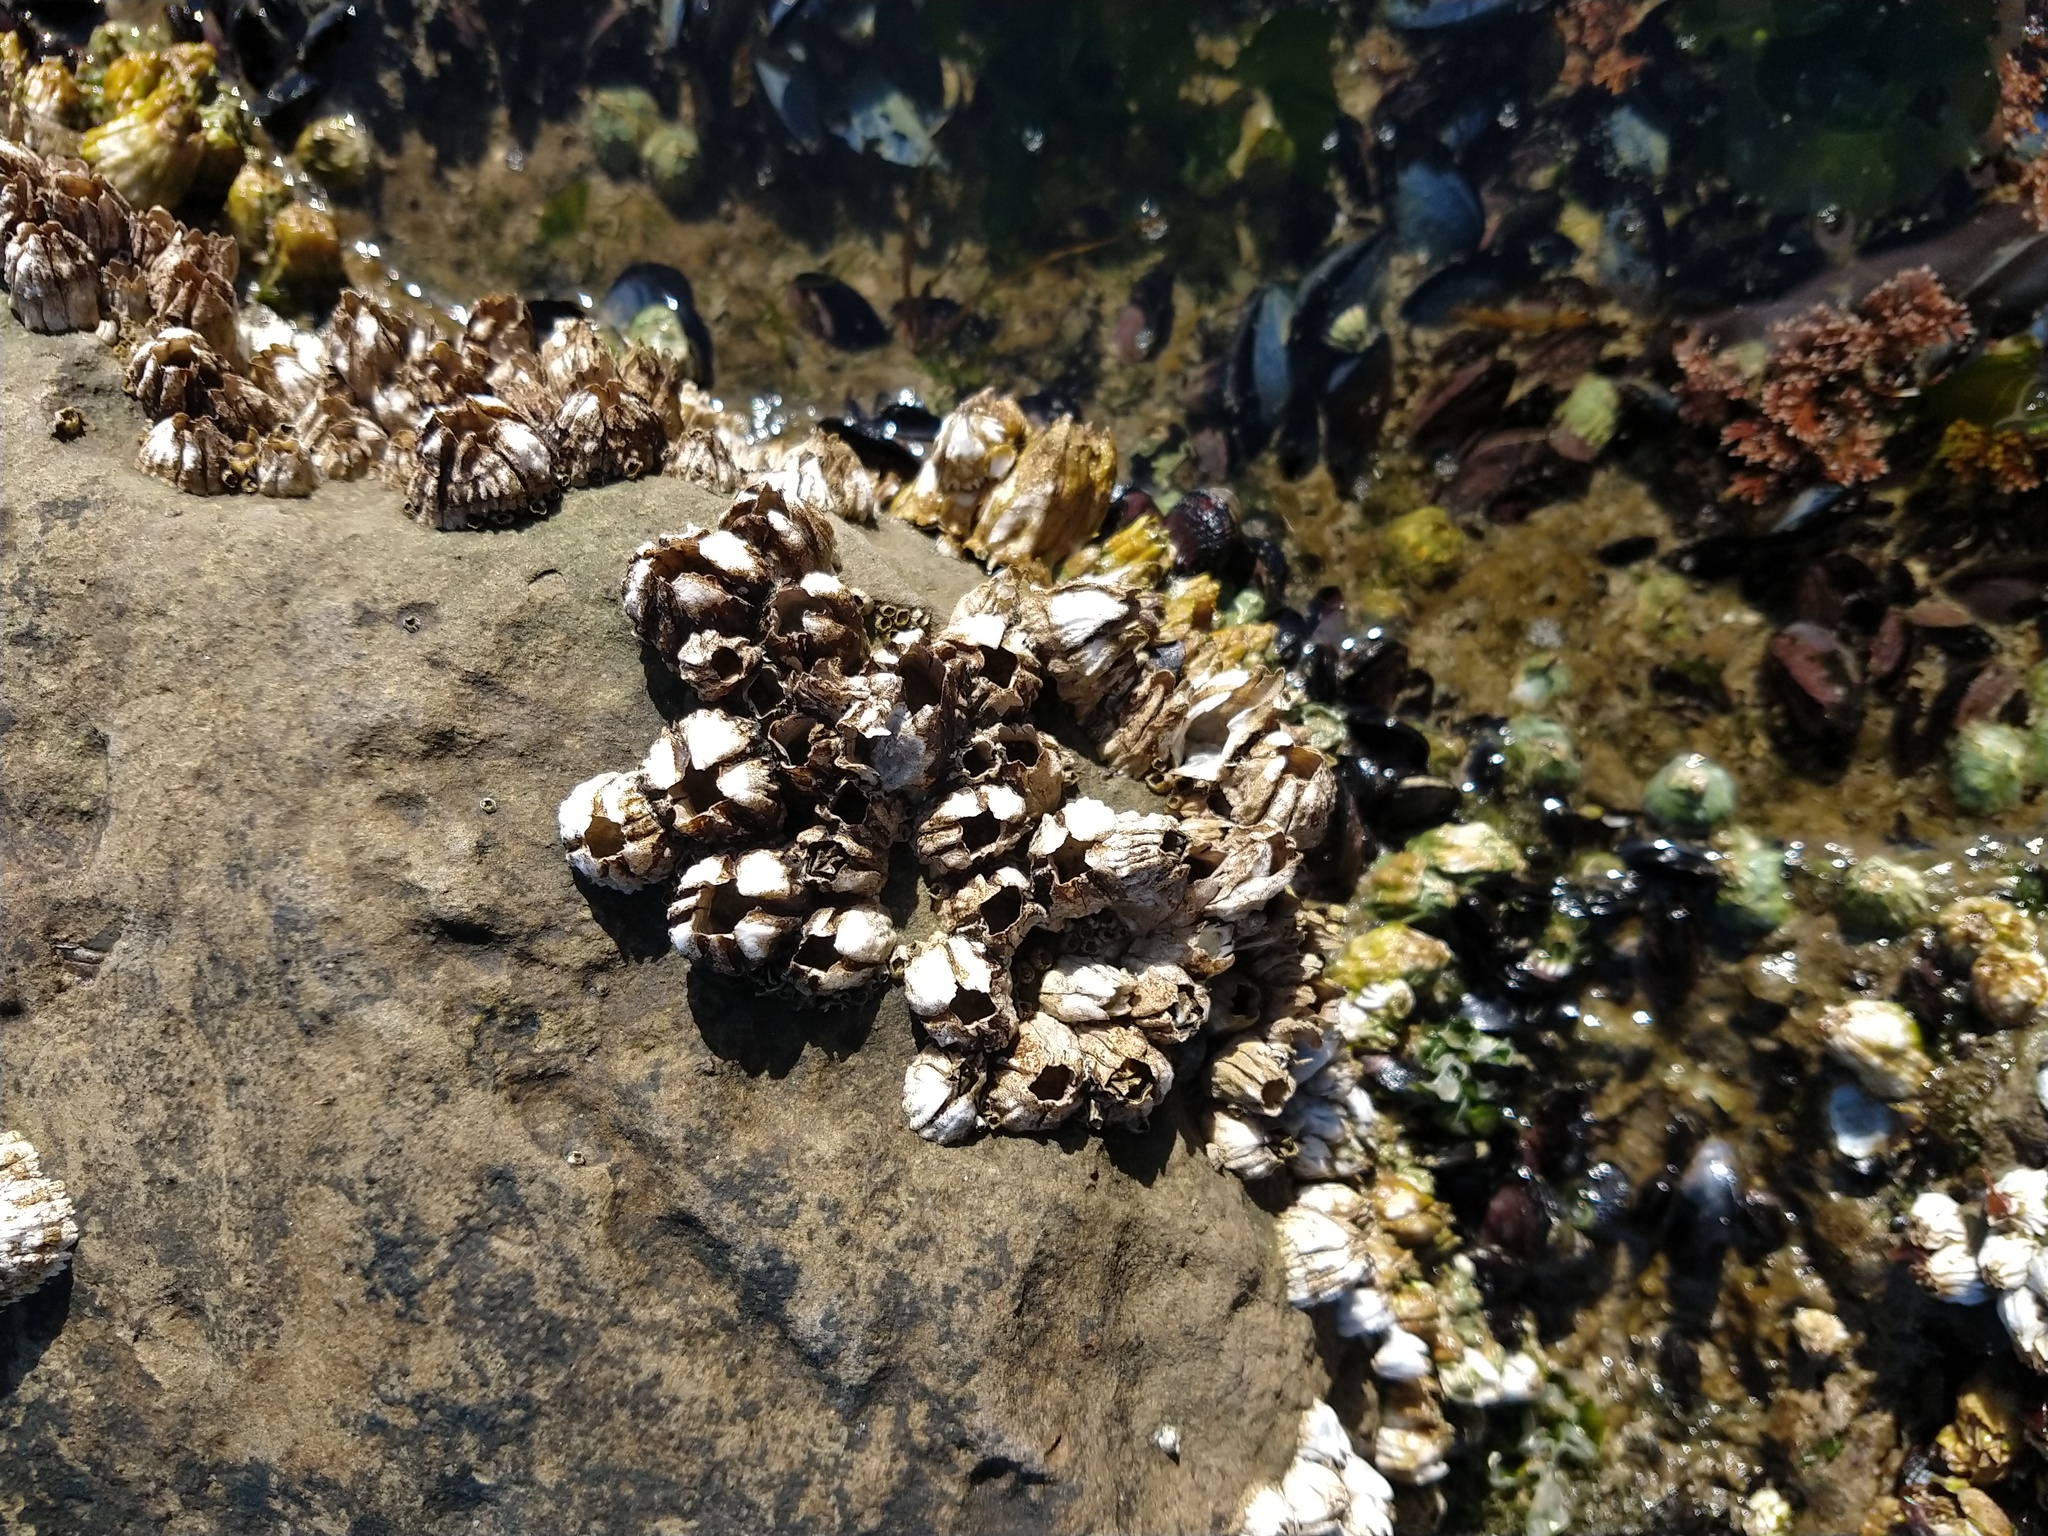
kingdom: Animalia
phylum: Arthropoda
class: Maxillopoda
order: Sessilia
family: Balanidae
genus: Balanus
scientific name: Balanus glandula
